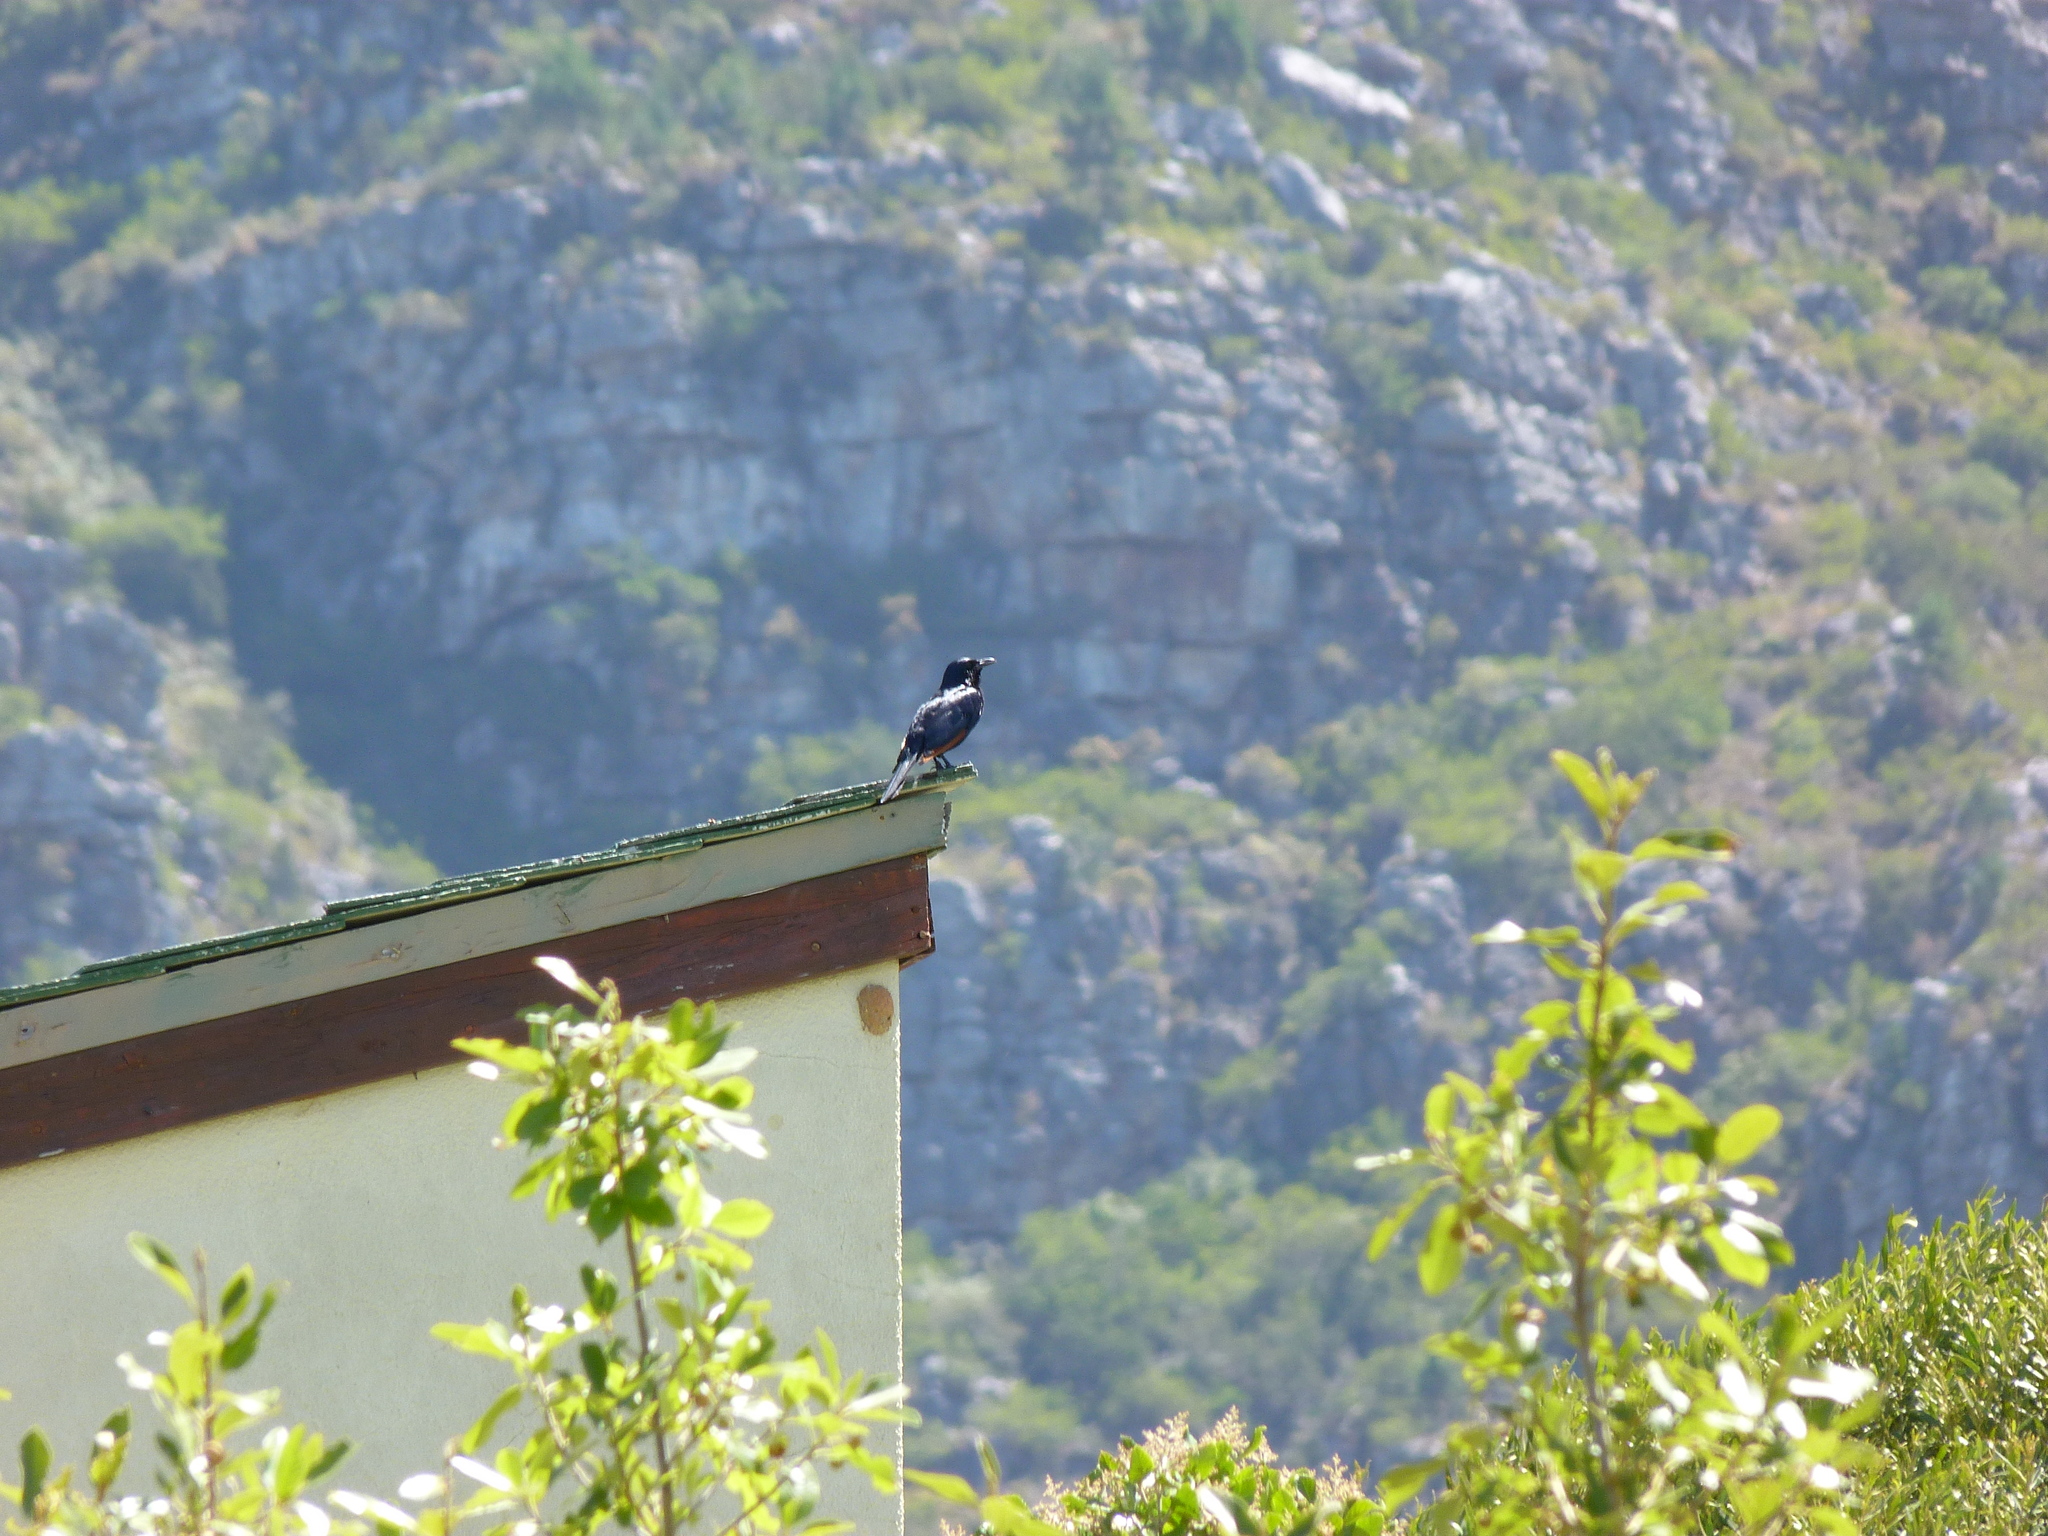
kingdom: Animalia
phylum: Chordata
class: Aves
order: Passeriformes
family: Sturnidae
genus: Onychognathus
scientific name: Onychognathus morio
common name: Red-winged starling
